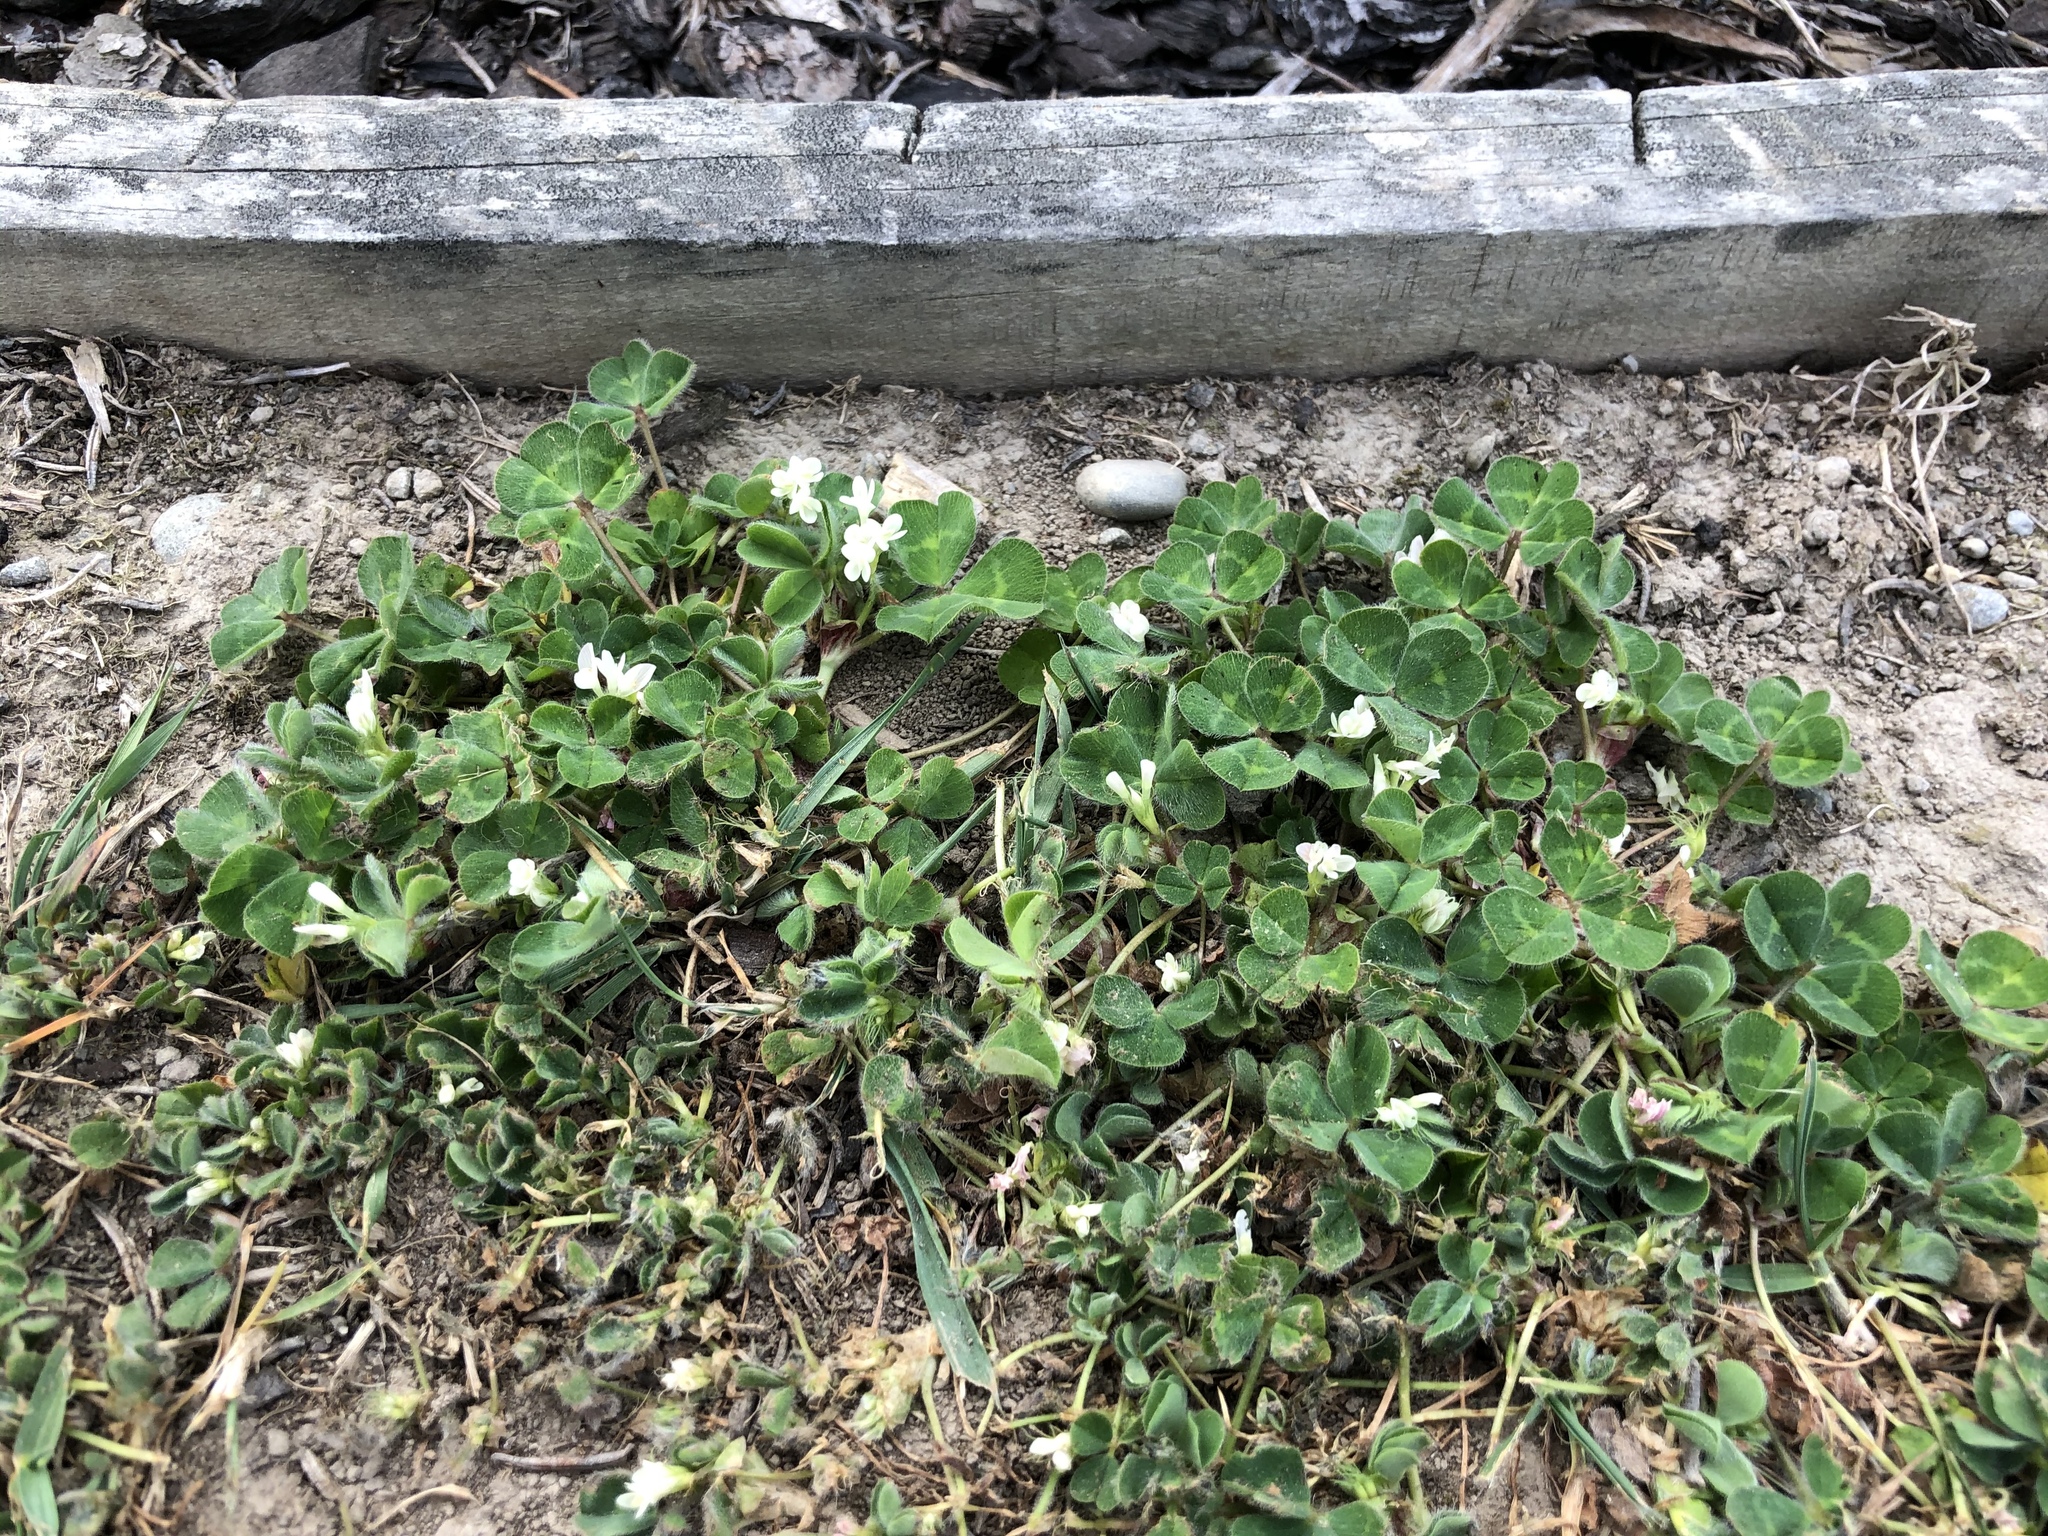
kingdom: Plantae
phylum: Tracheophyta
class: Magnoliopsida
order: Fabales
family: Fabaceae
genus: Trifolium
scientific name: Trifolium subterraneum
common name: Subterranean clover
